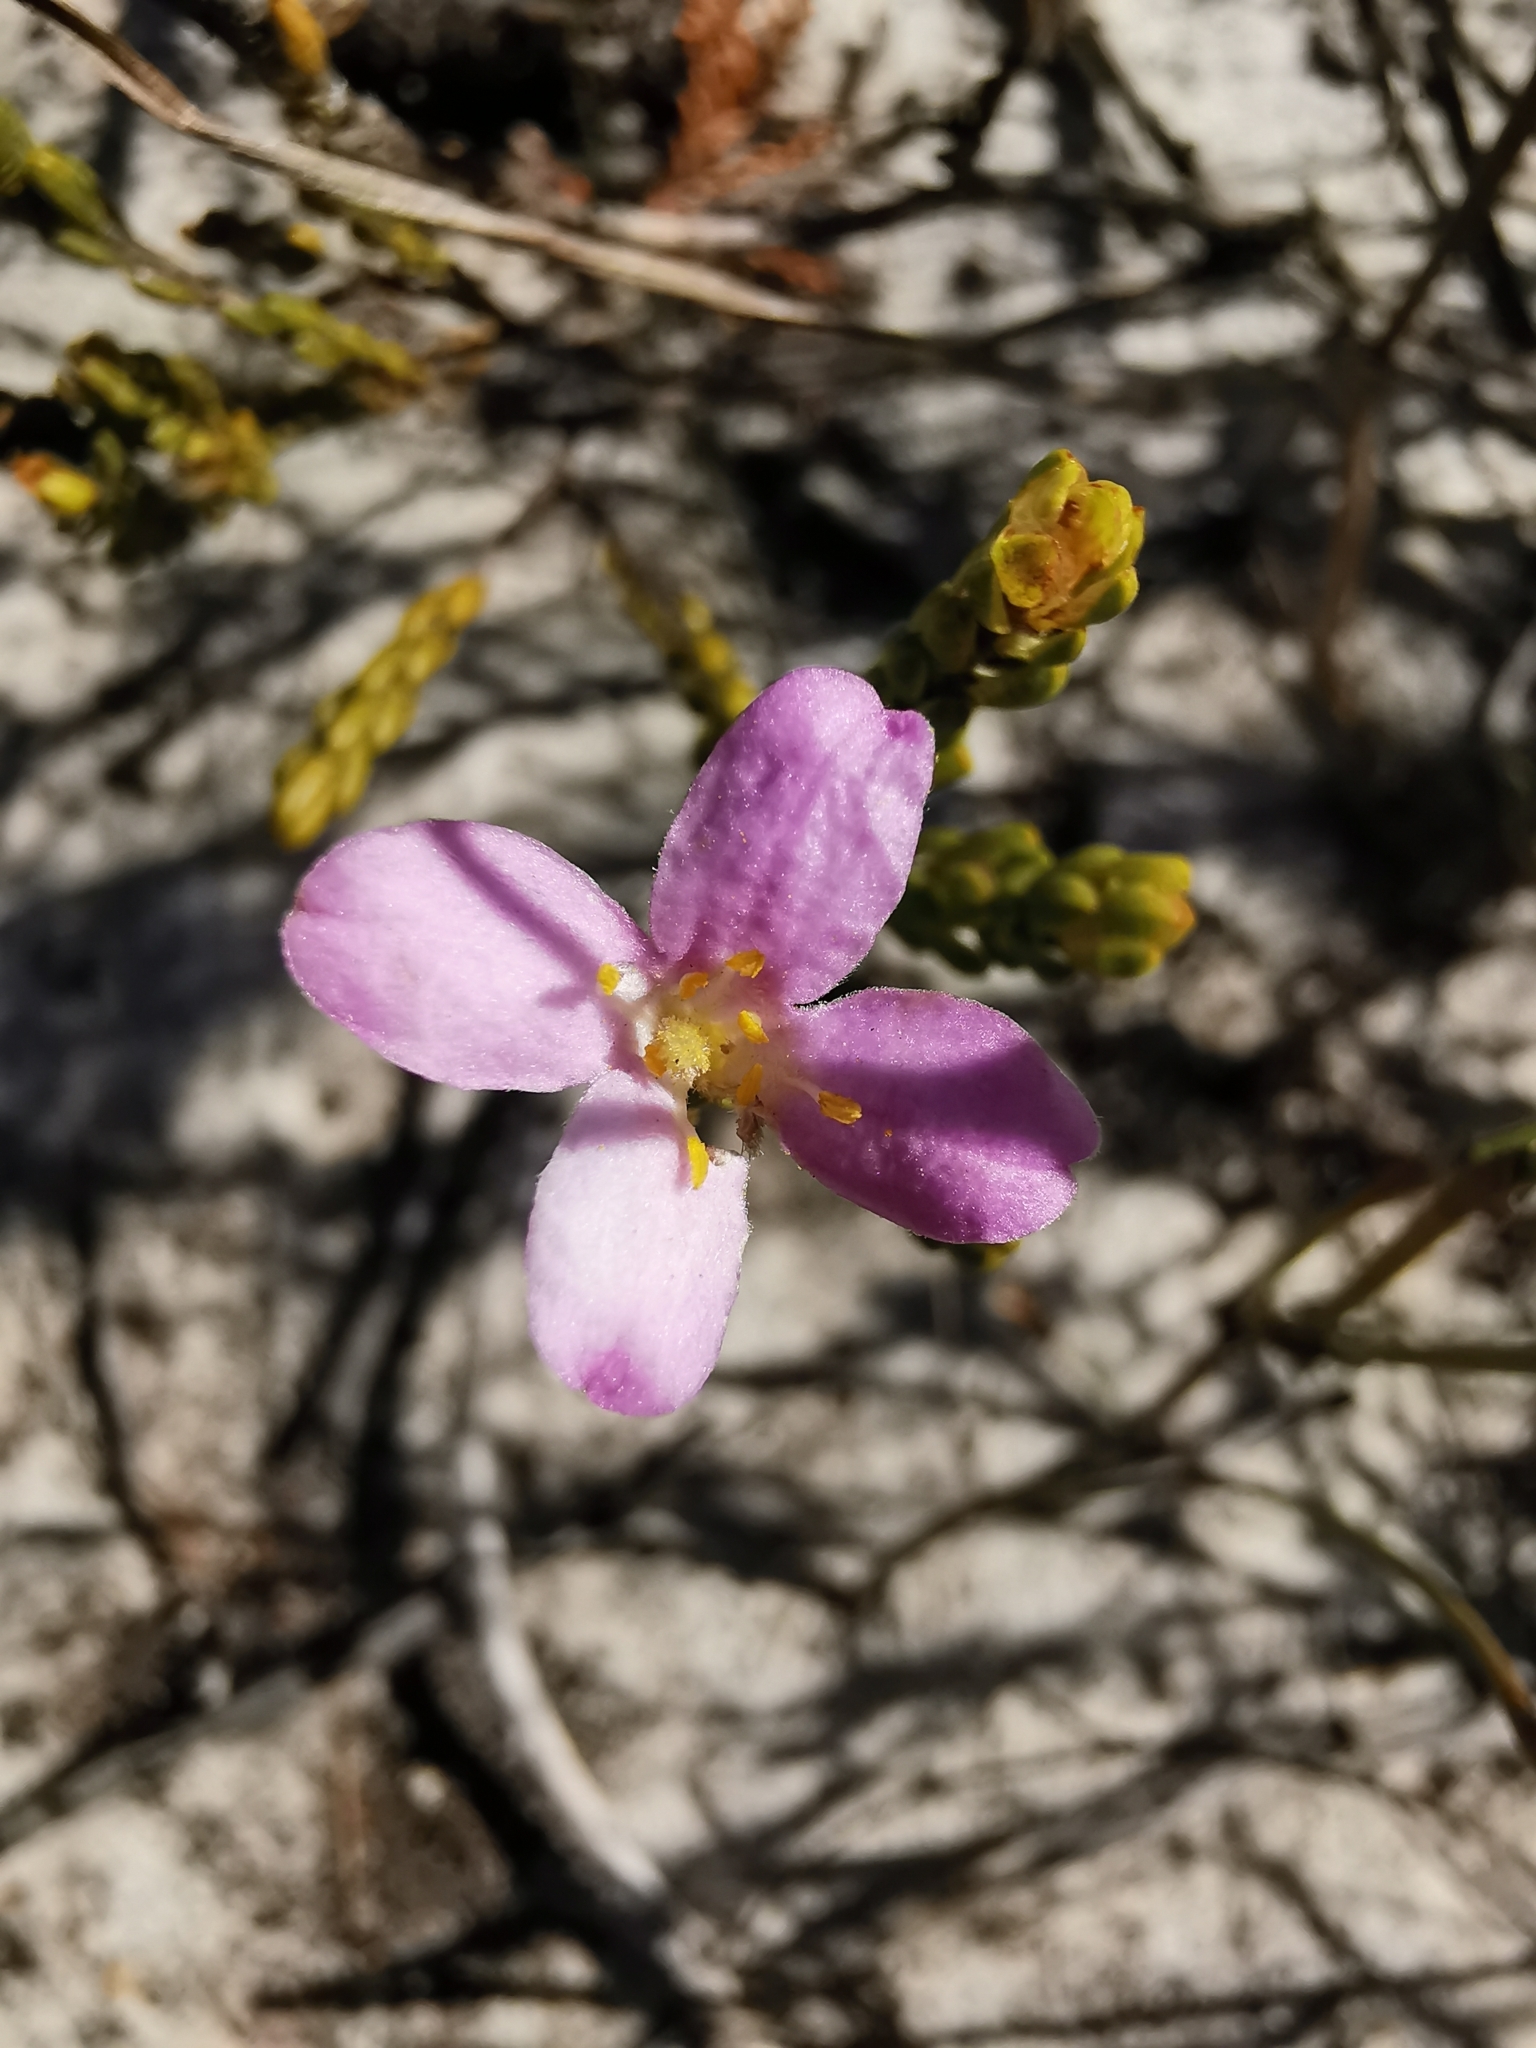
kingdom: Plantae
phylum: Tracheophyta
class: Magnoliopsida
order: Malvales
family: Thymelaeaceae
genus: Lachnaea
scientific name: Lachnaea grandiflora
